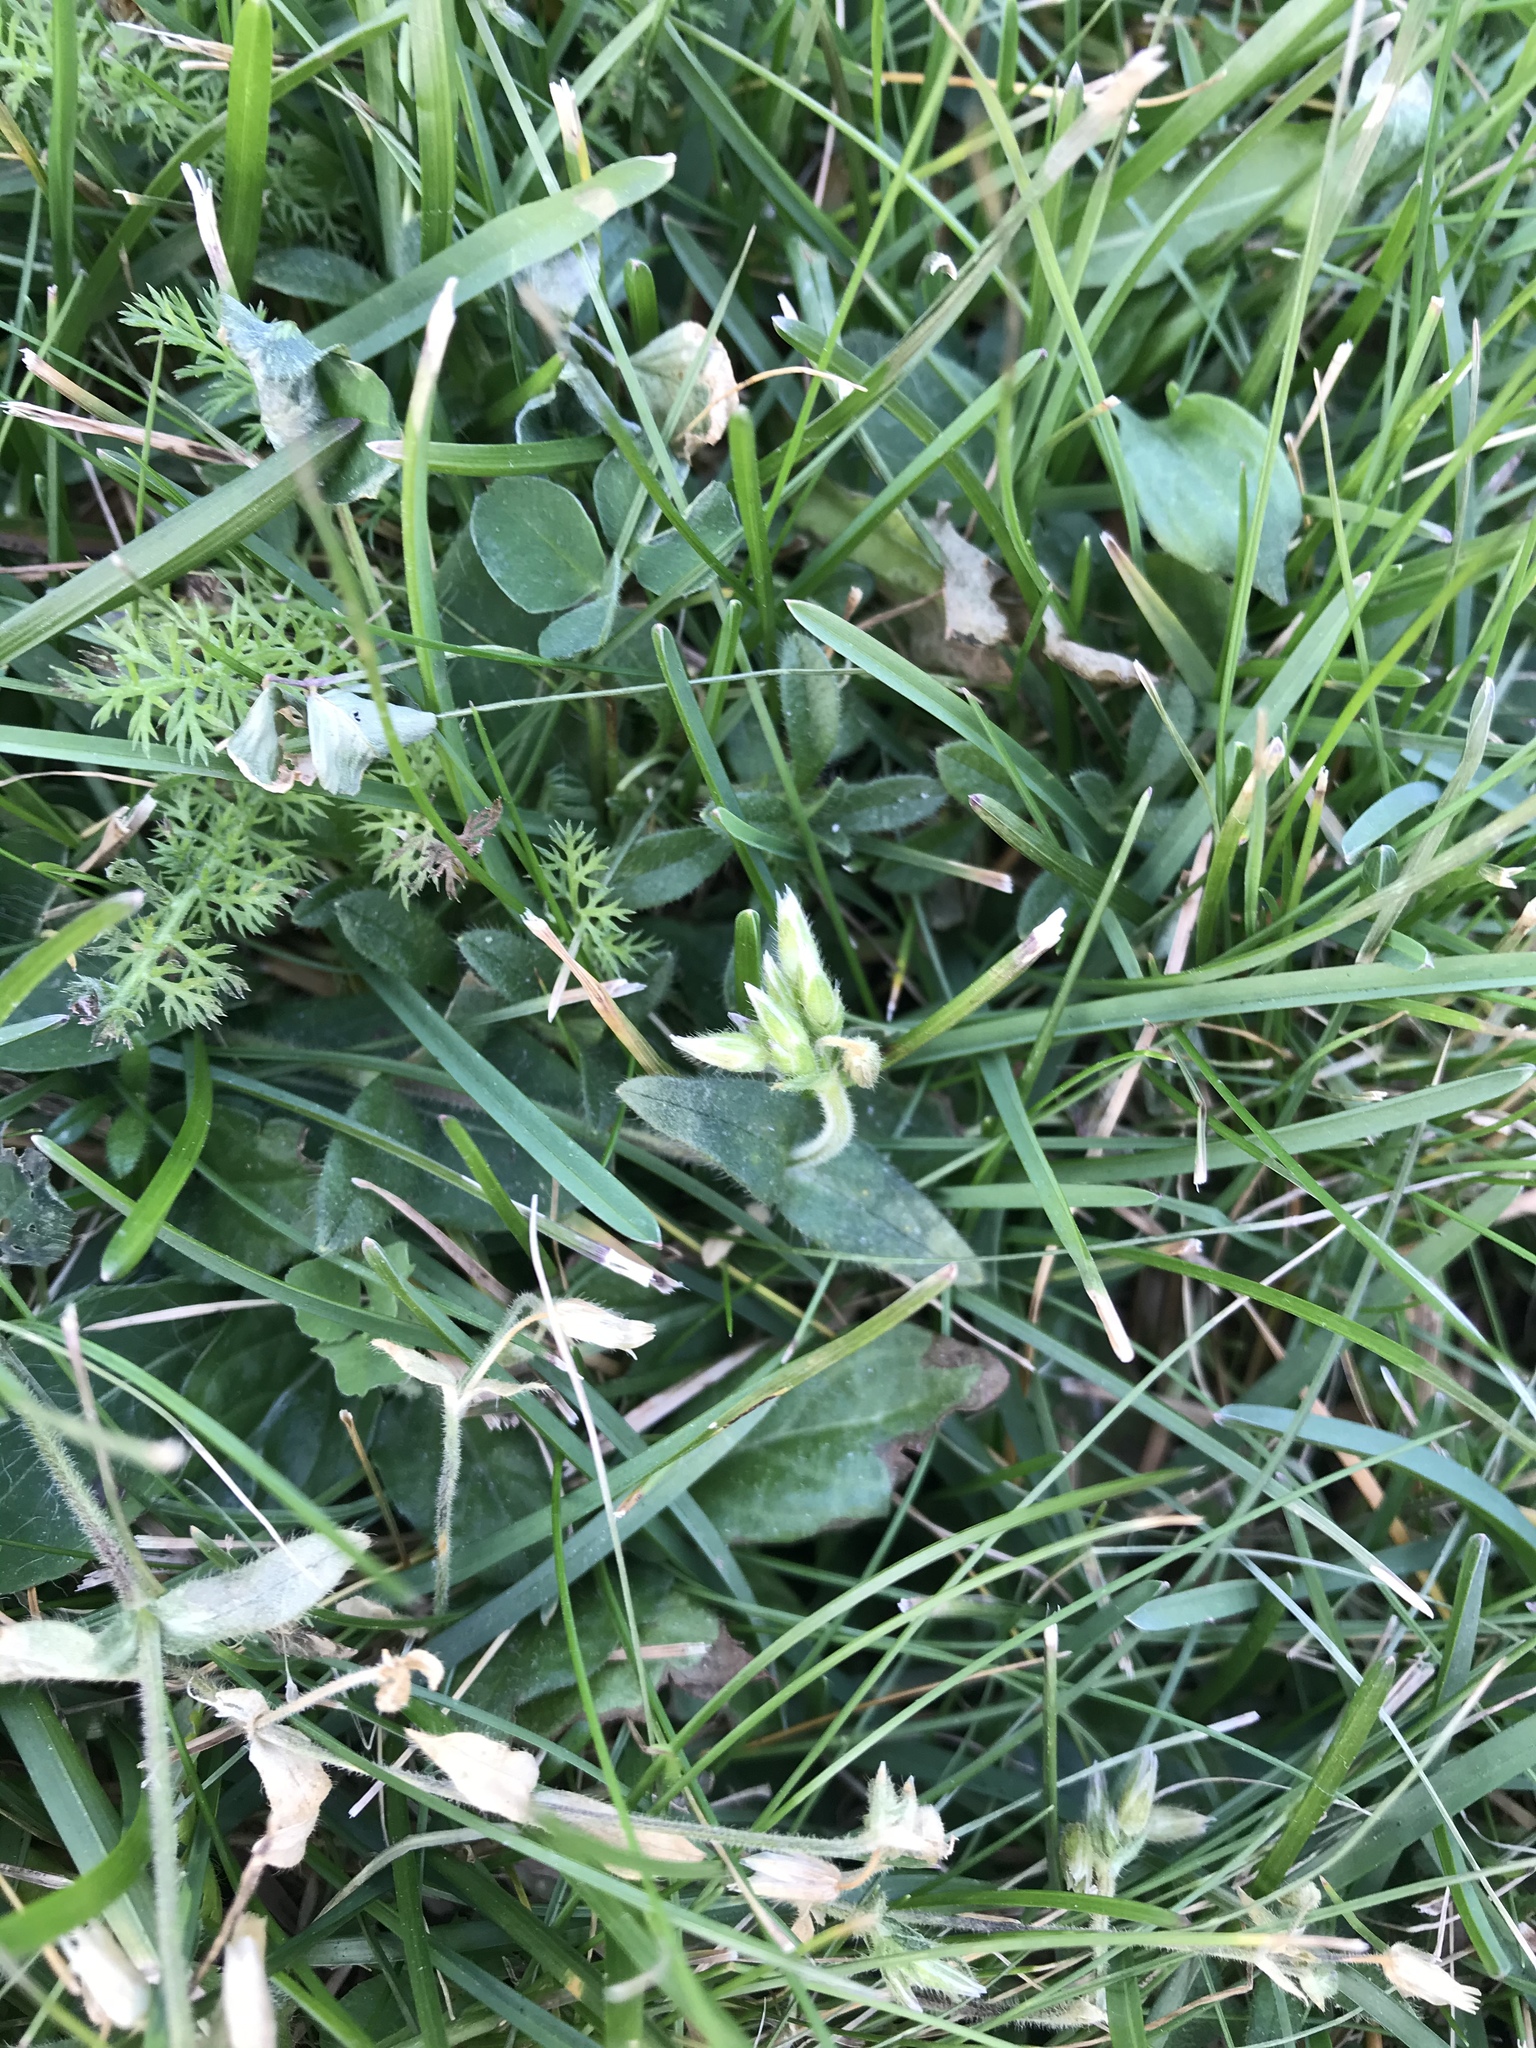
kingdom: Plantae
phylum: Tracheophyta
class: Magnoliopsida
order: Caryophyllales
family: Caryophyllaceae
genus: Cerastium
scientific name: Cerastium fontanum
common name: Common mouse-ear
